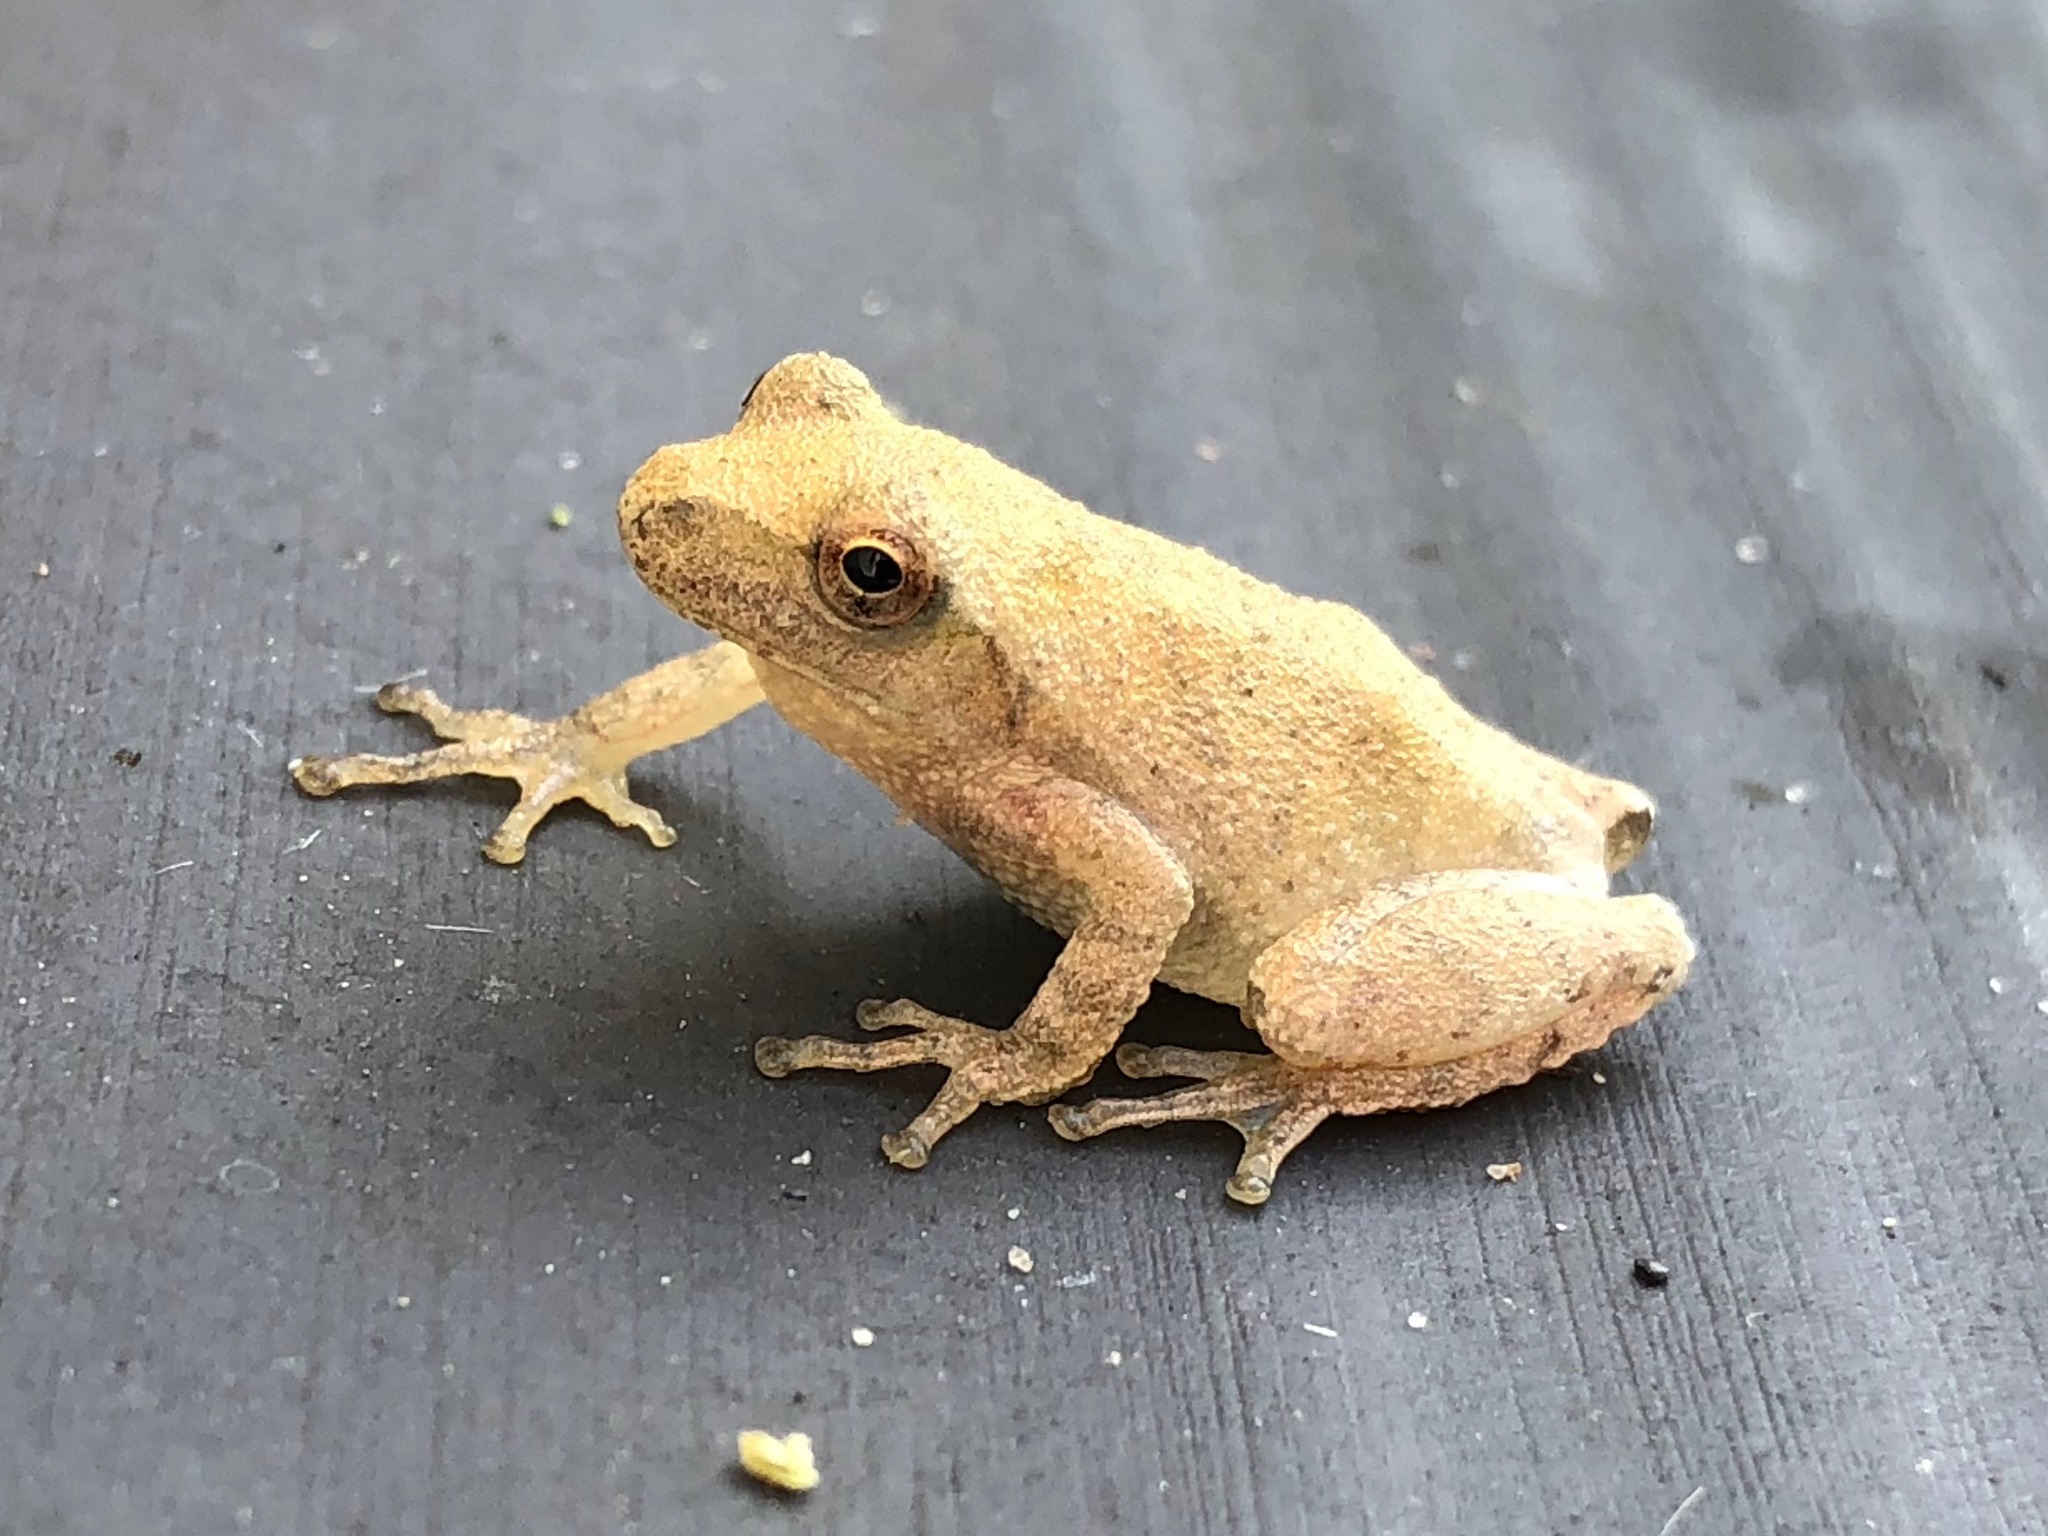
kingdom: Animalia
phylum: Chordata
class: Amphibia
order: Anura
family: Hylidae
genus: Pseudacris
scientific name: Pseudacris crucifer
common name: Spring peeper
